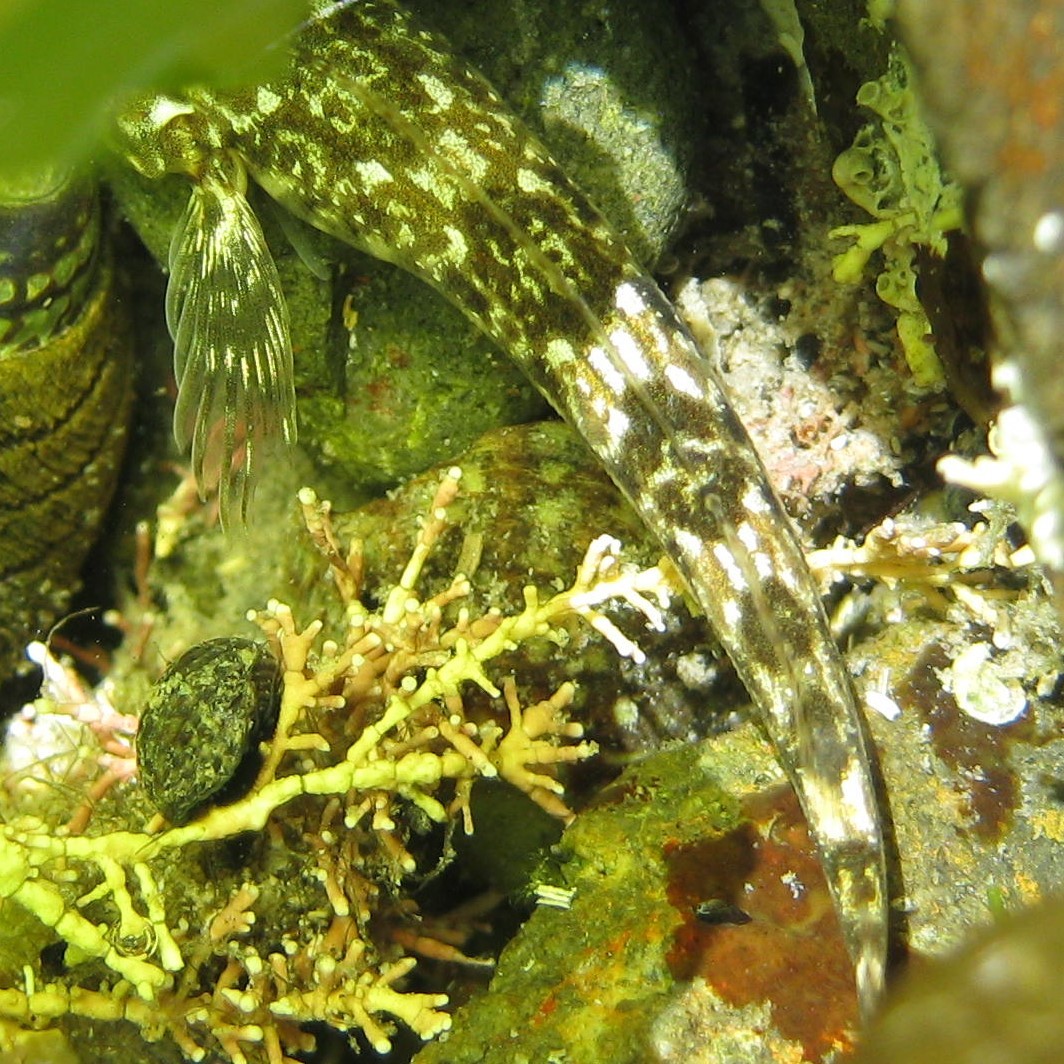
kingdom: Animalia
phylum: Chordata
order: Perciformes
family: Tripterygiidae
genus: Bellapiscis
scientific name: Bellapiscis medius
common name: Twister
